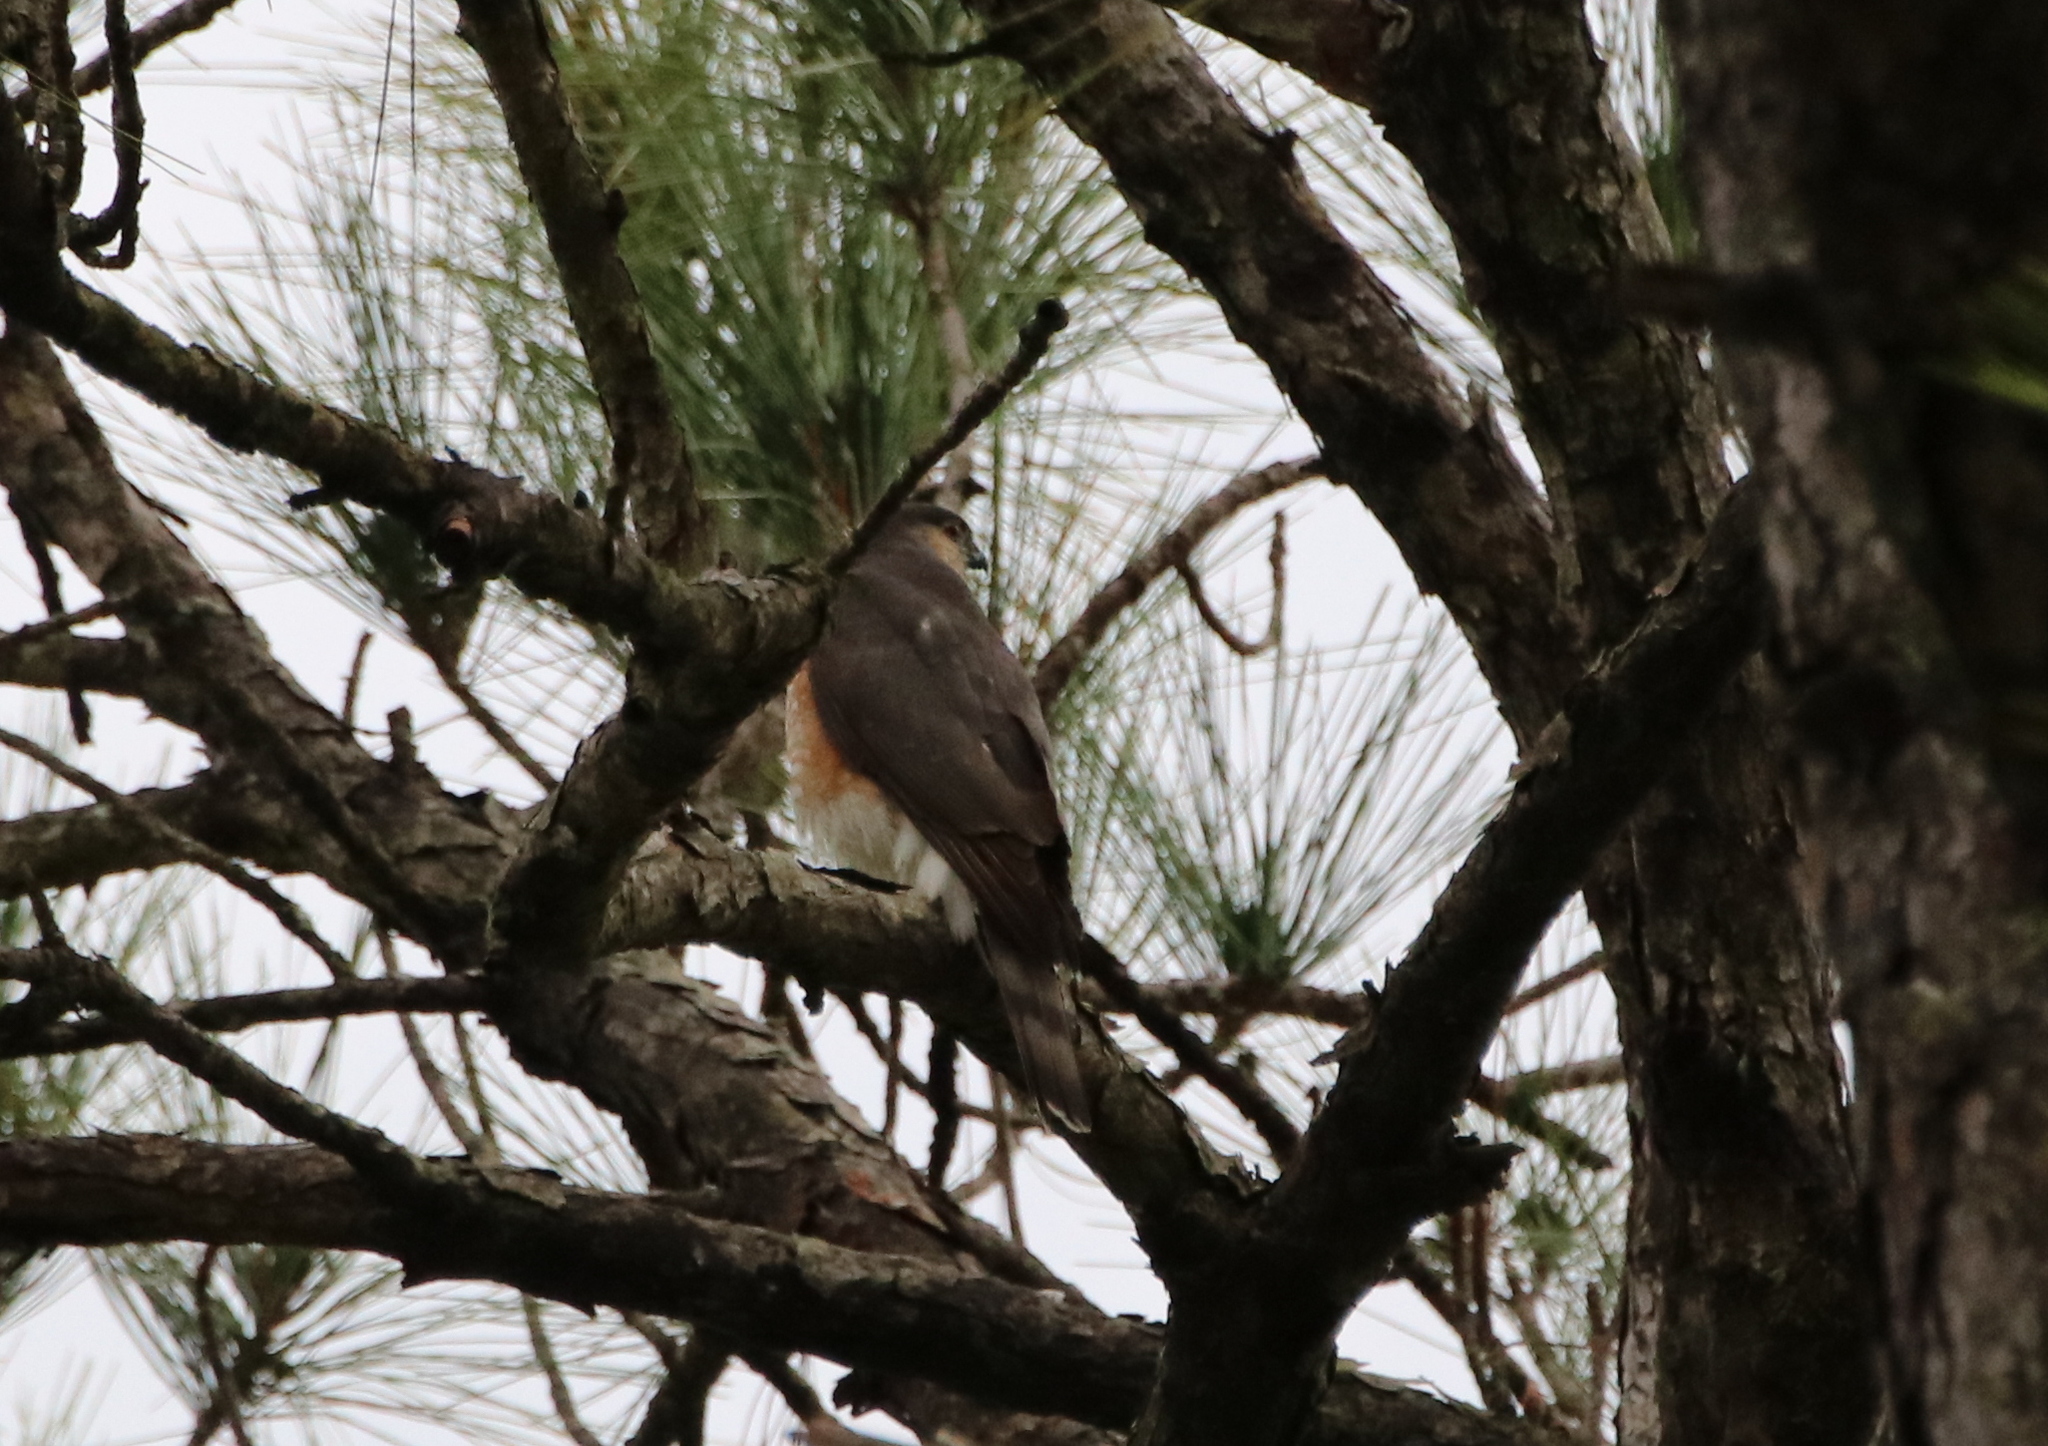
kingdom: Animalia
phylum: Chordata
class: Aves
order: Accipitriformes
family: Accipitridae
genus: Accipiter
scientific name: Accipiter striatus
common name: Sharp-shinned hawk
